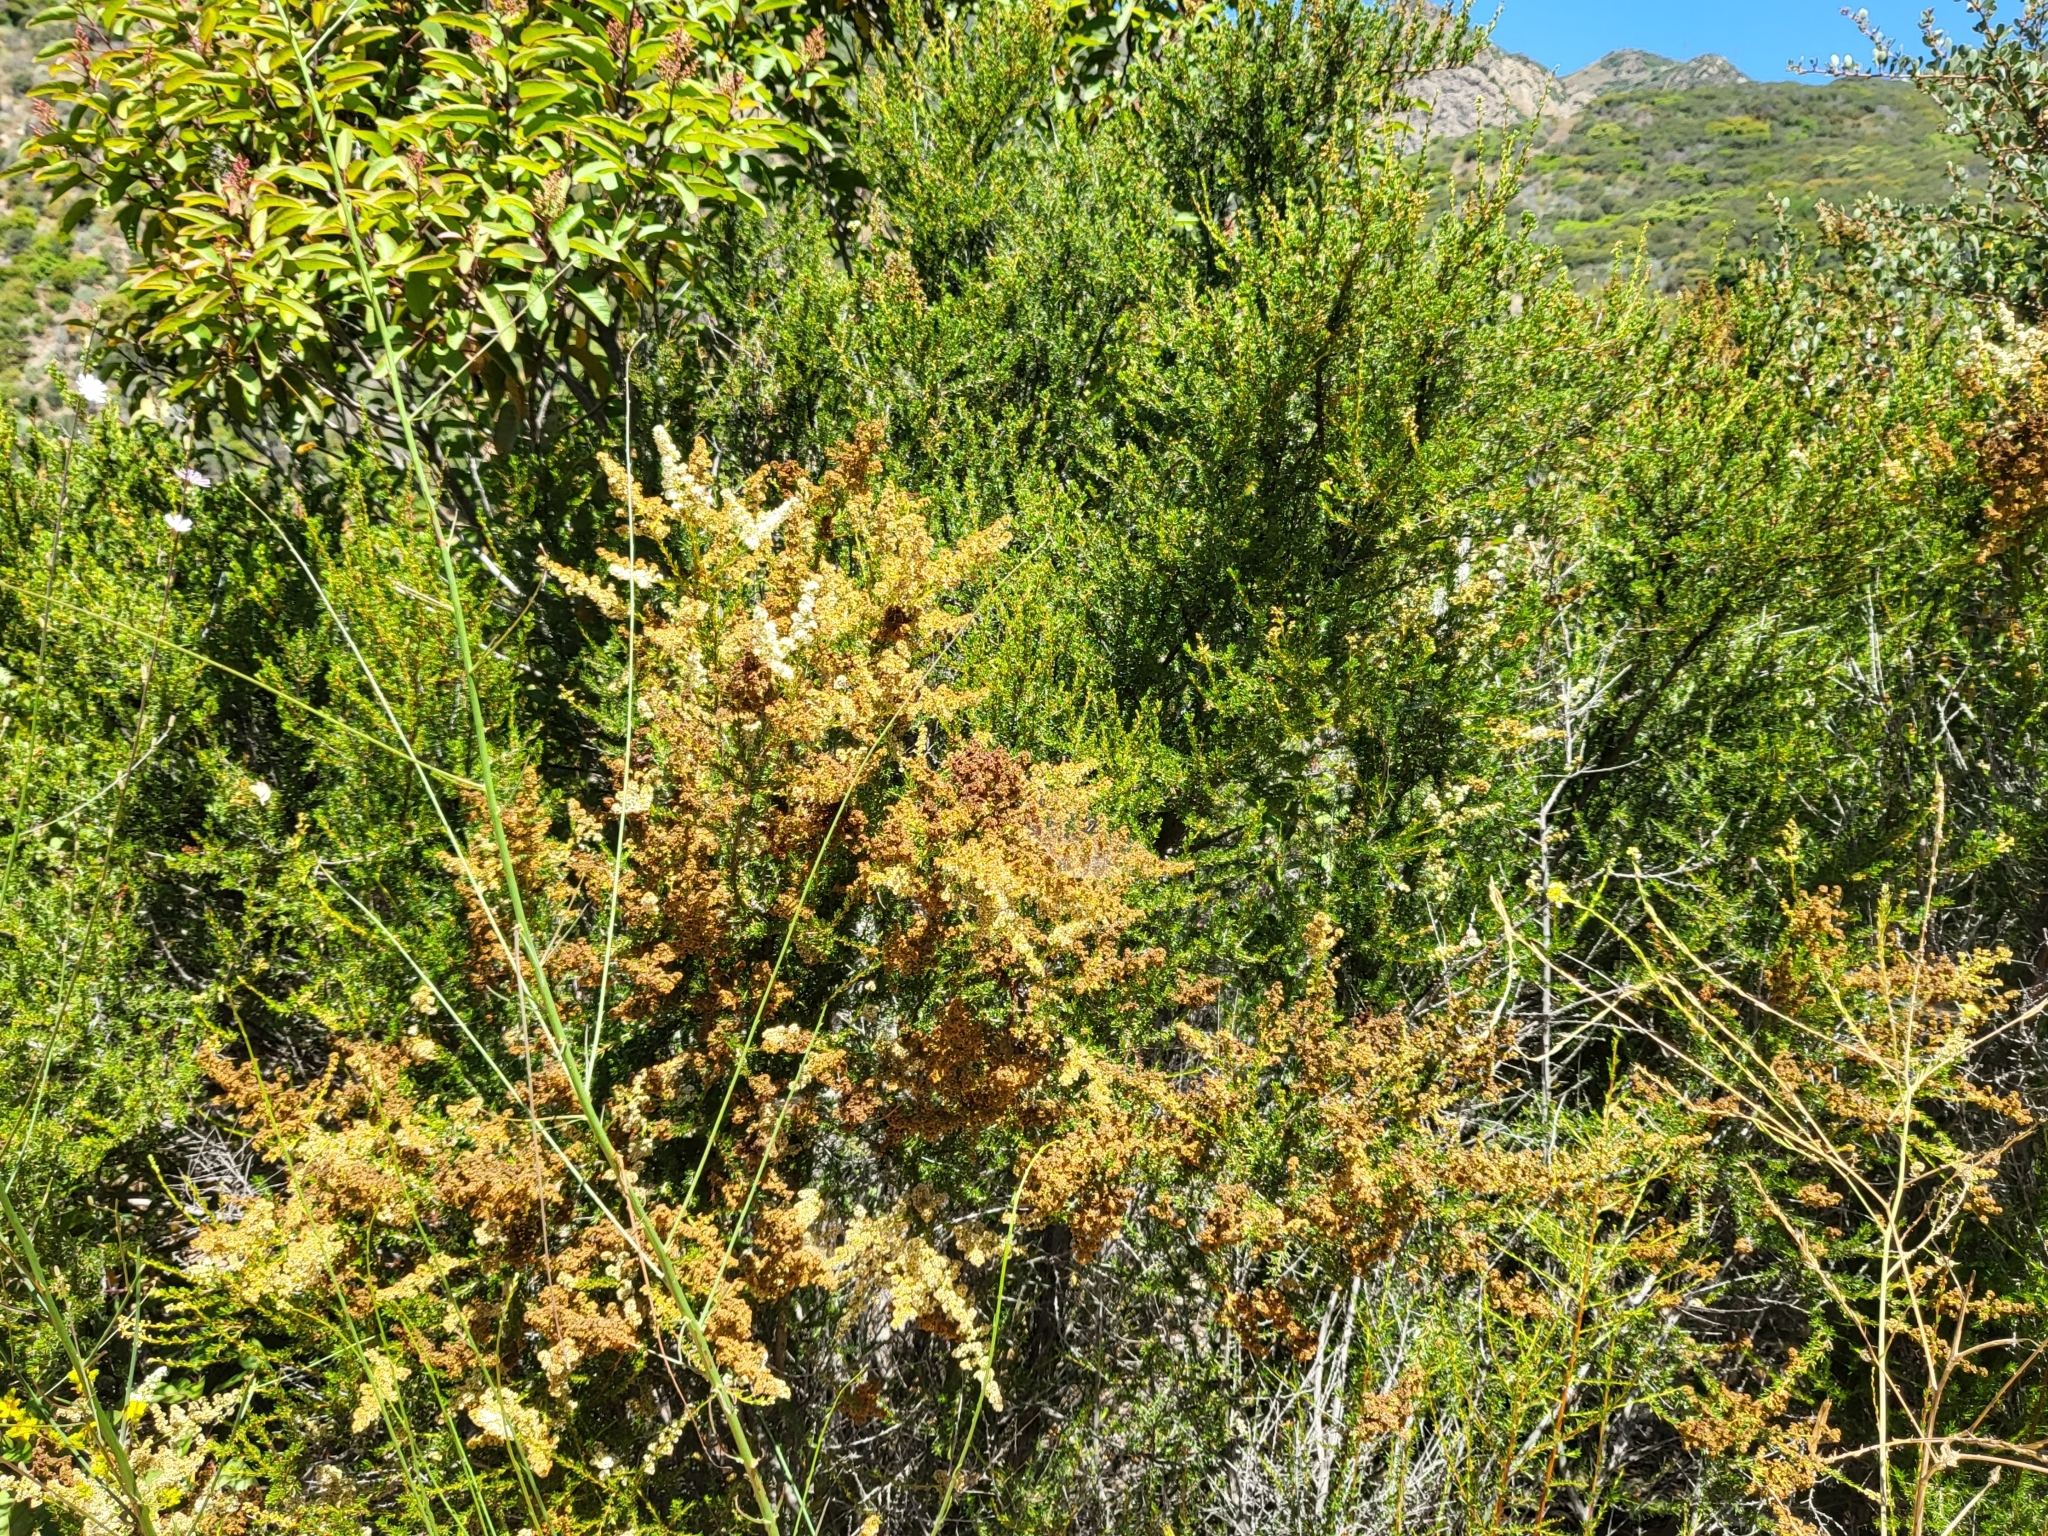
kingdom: Plantae
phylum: Tracheophyta
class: Magnoliopsida
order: Rosales
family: Rosaceae
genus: Adenostoma
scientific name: Adenostoma fasciculatum
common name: Chamise
